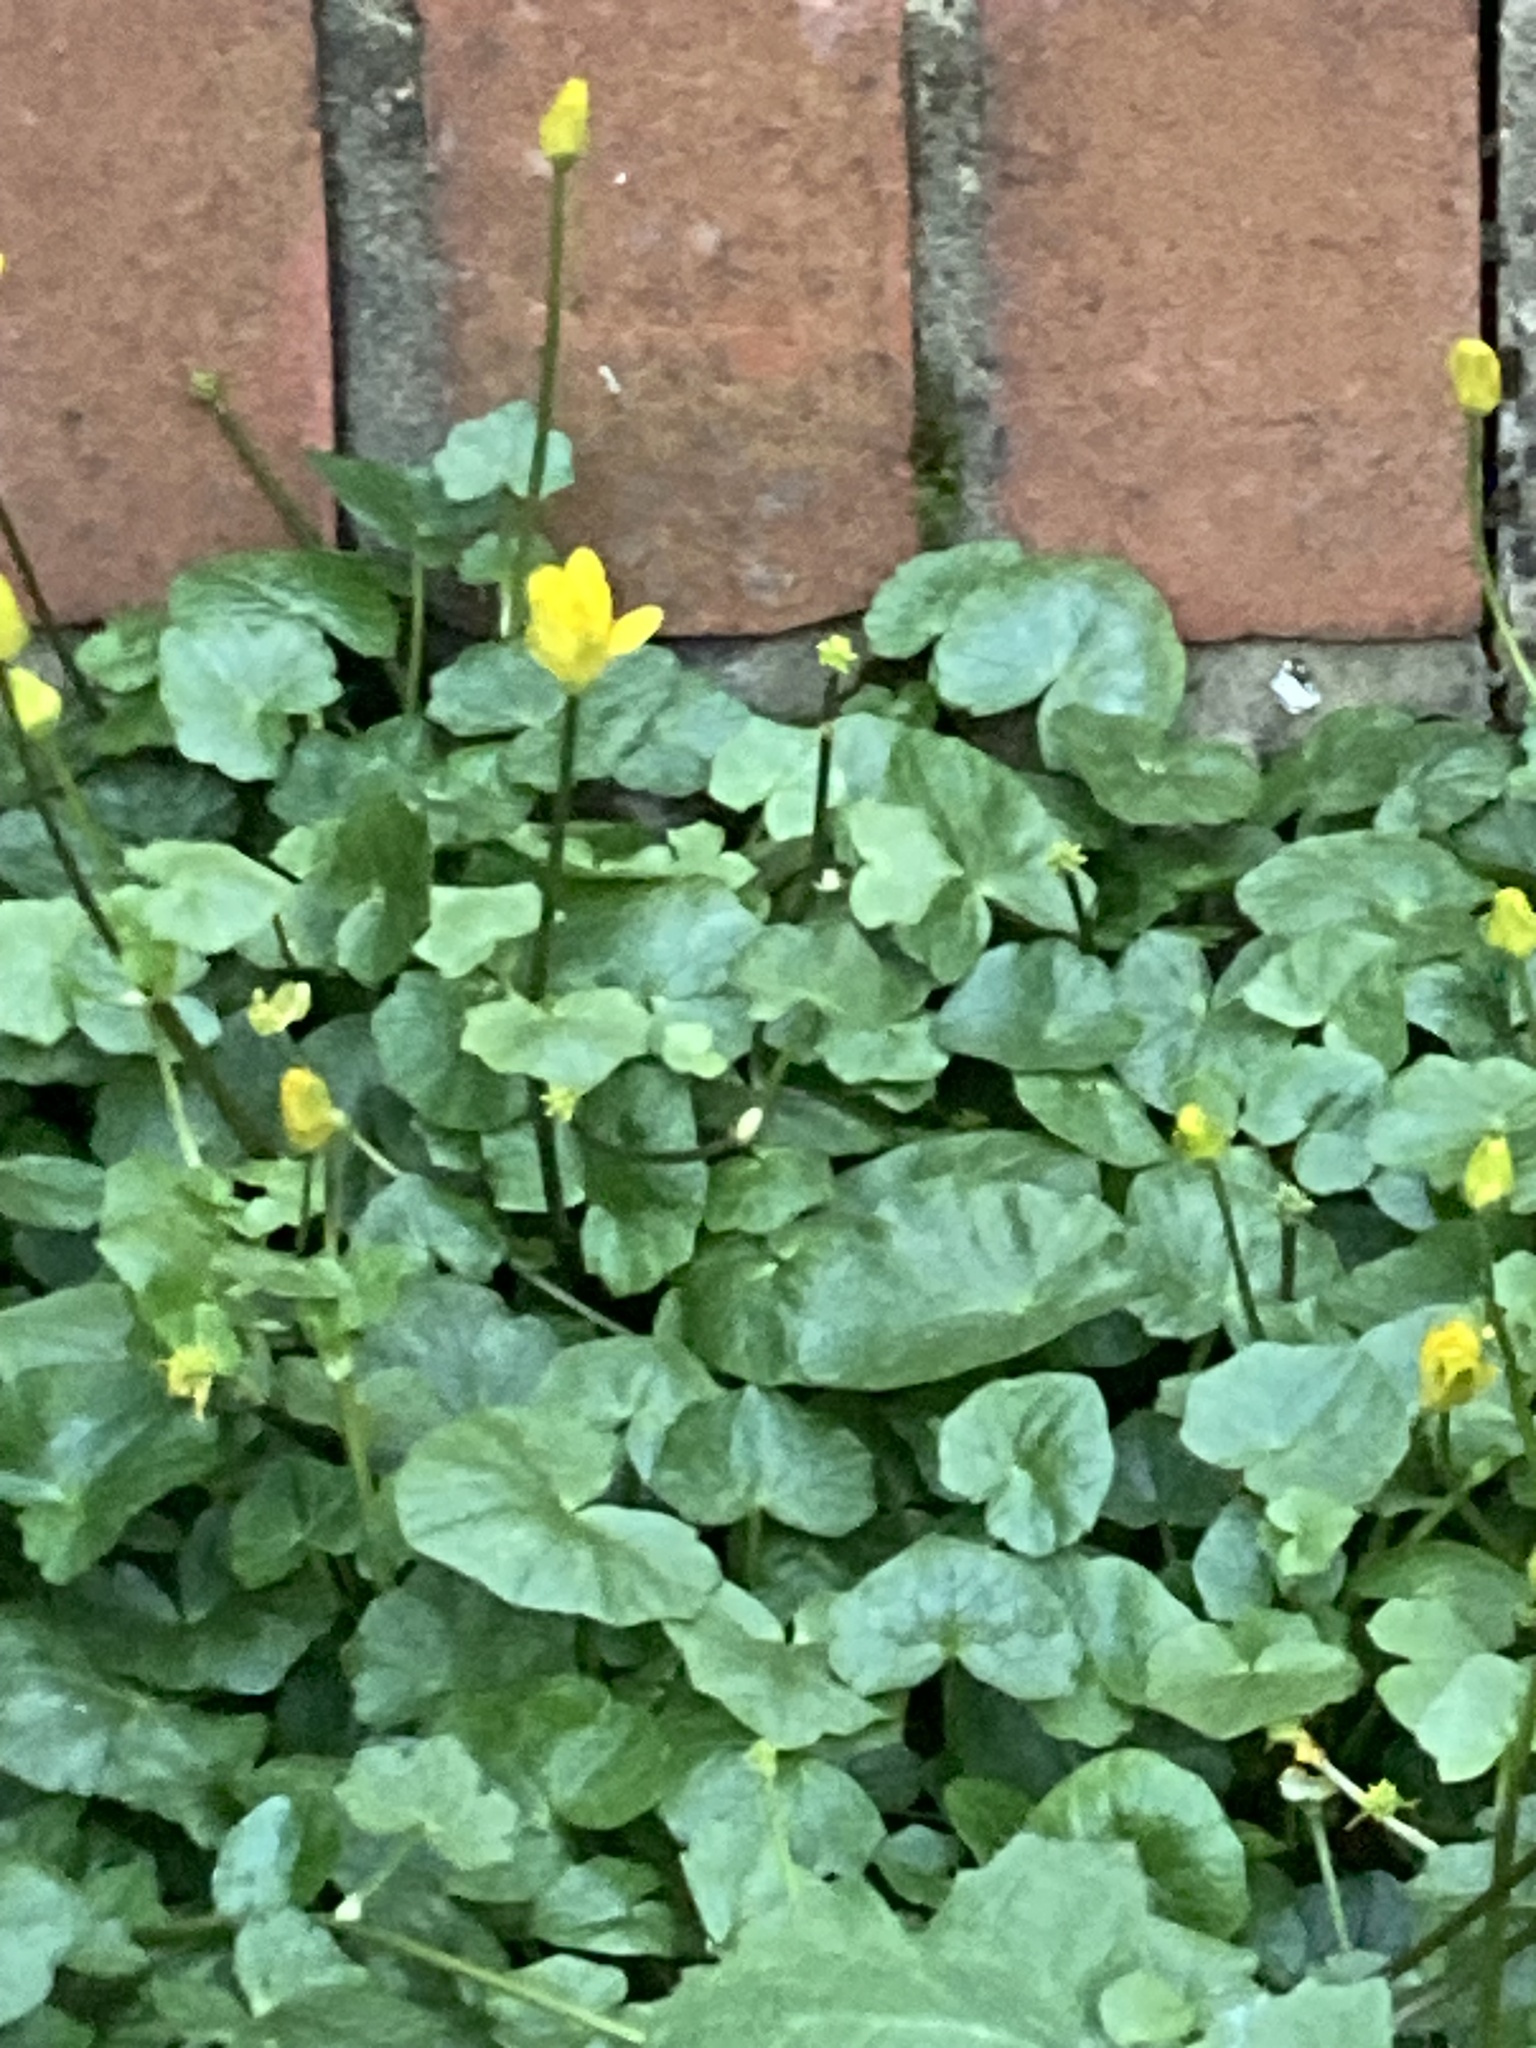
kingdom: Plantae
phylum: Tracheophyta
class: Magnoliopsida
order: Ranunculales
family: Ranunculaceae
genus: Ficaria
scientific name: Ficaria verna
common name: Lesser celandine
